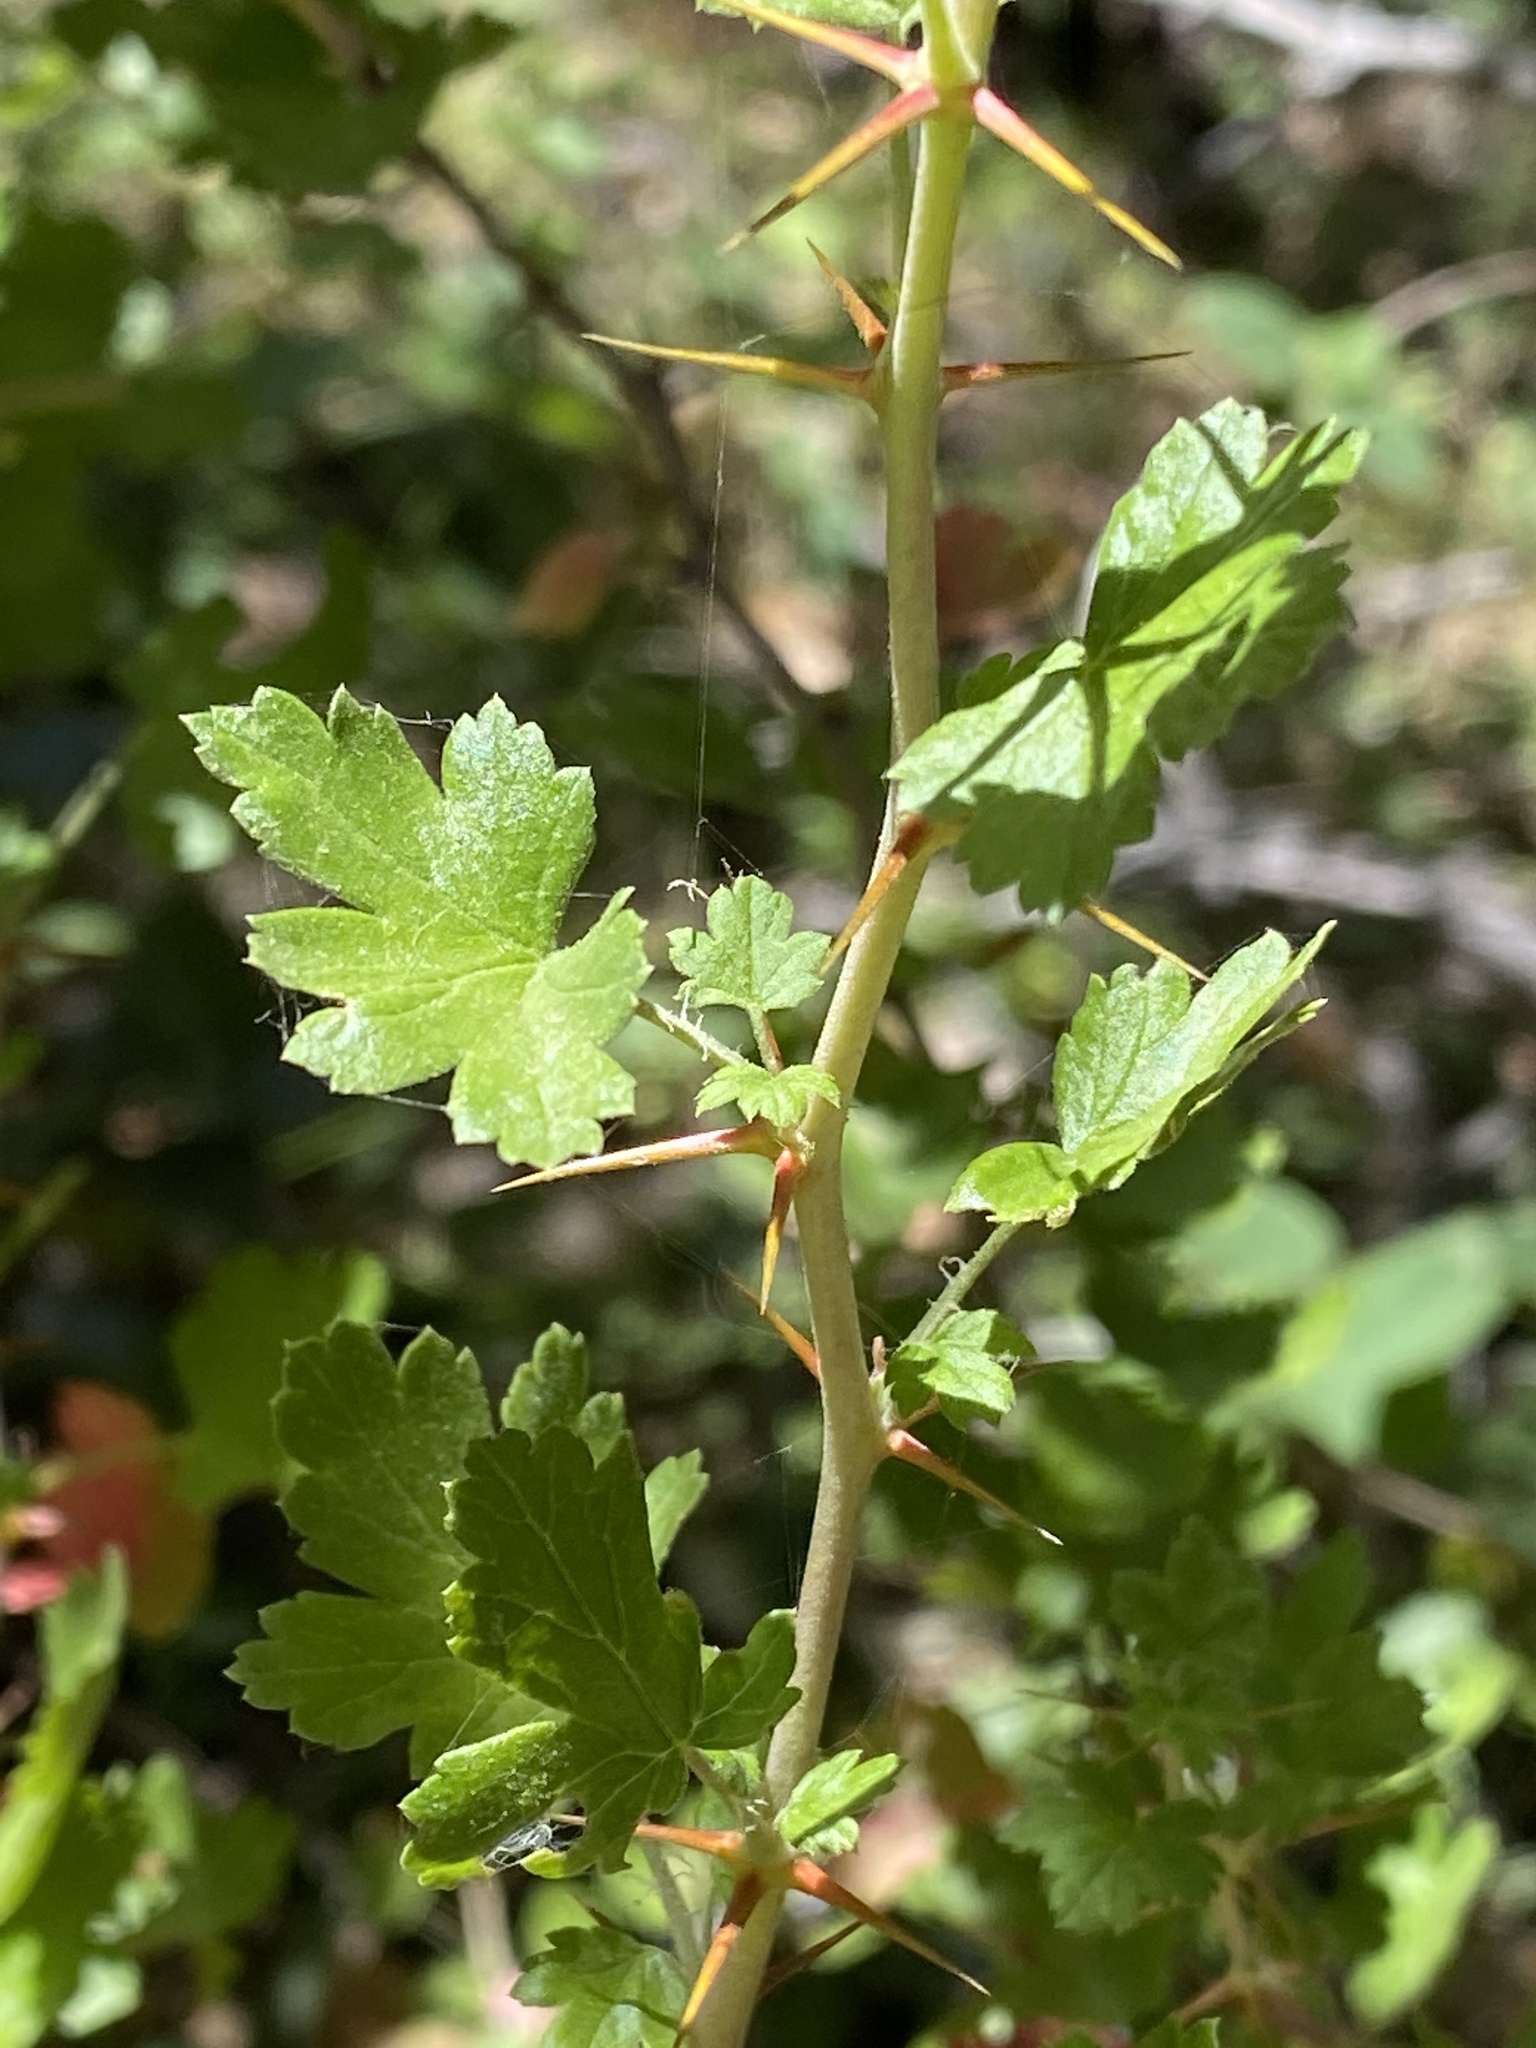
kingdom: Plantae
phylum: Tracheophyta
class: Magnoliopsida
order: Saxifragales
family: Grossulariaceae
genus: Ribes
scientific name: Ribes californicum
